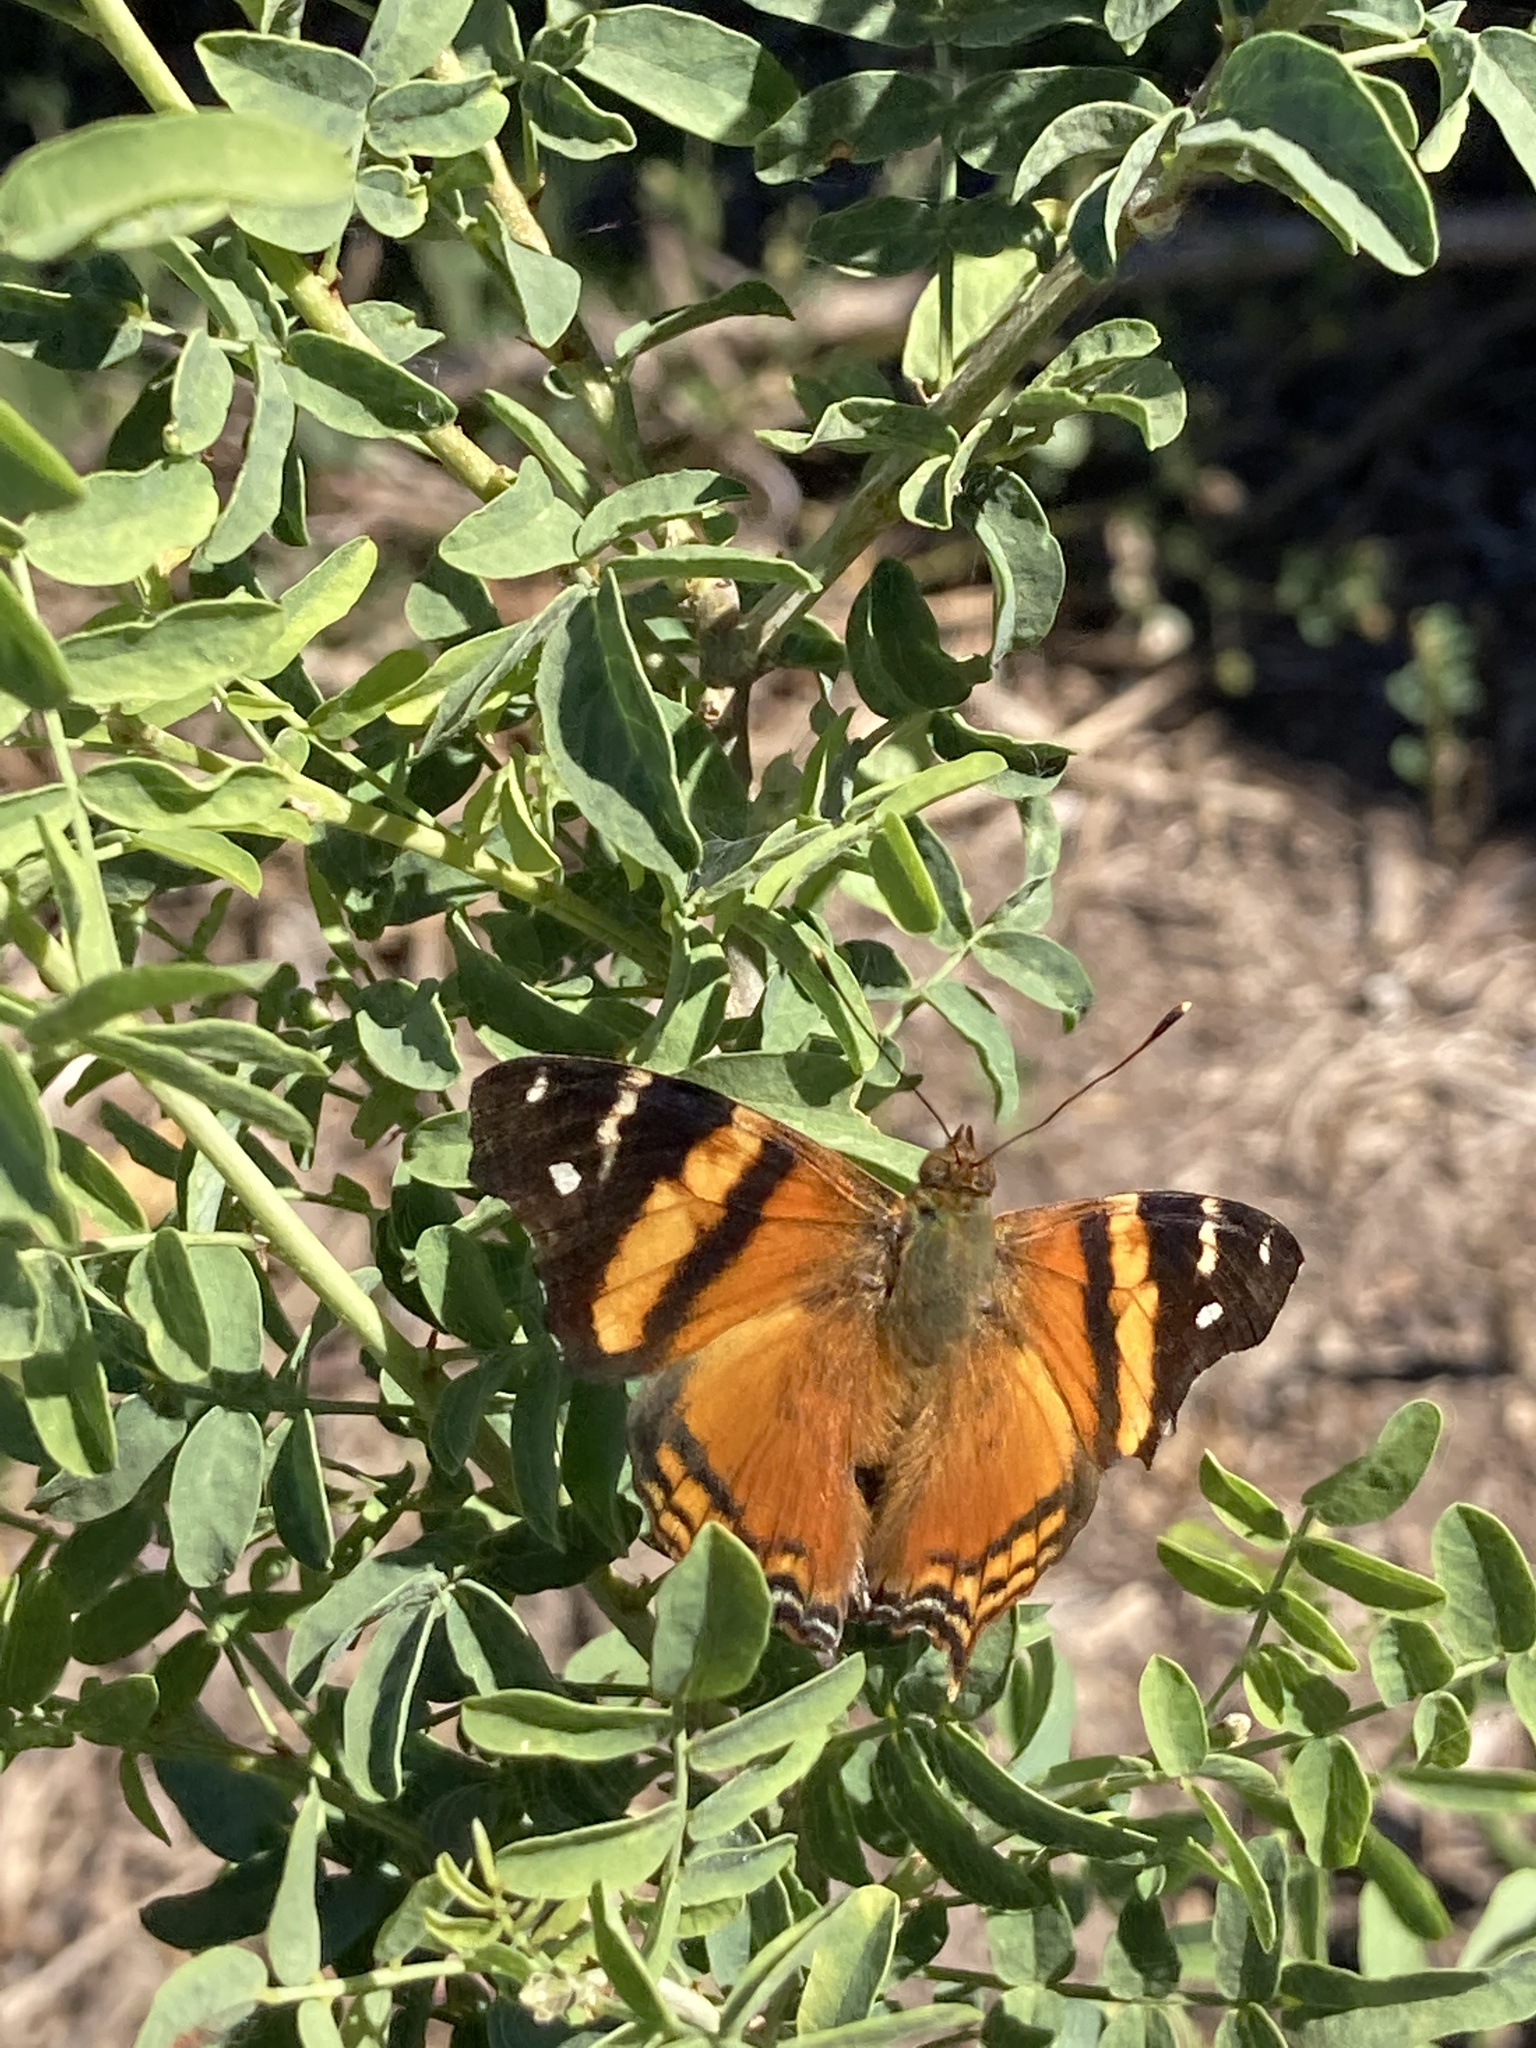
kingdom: Animalia
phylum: Arthropoda
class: Insecta
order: Lepidoptera
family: Nymphalidae
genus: Hypanartia
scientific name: Hypanartia bella
